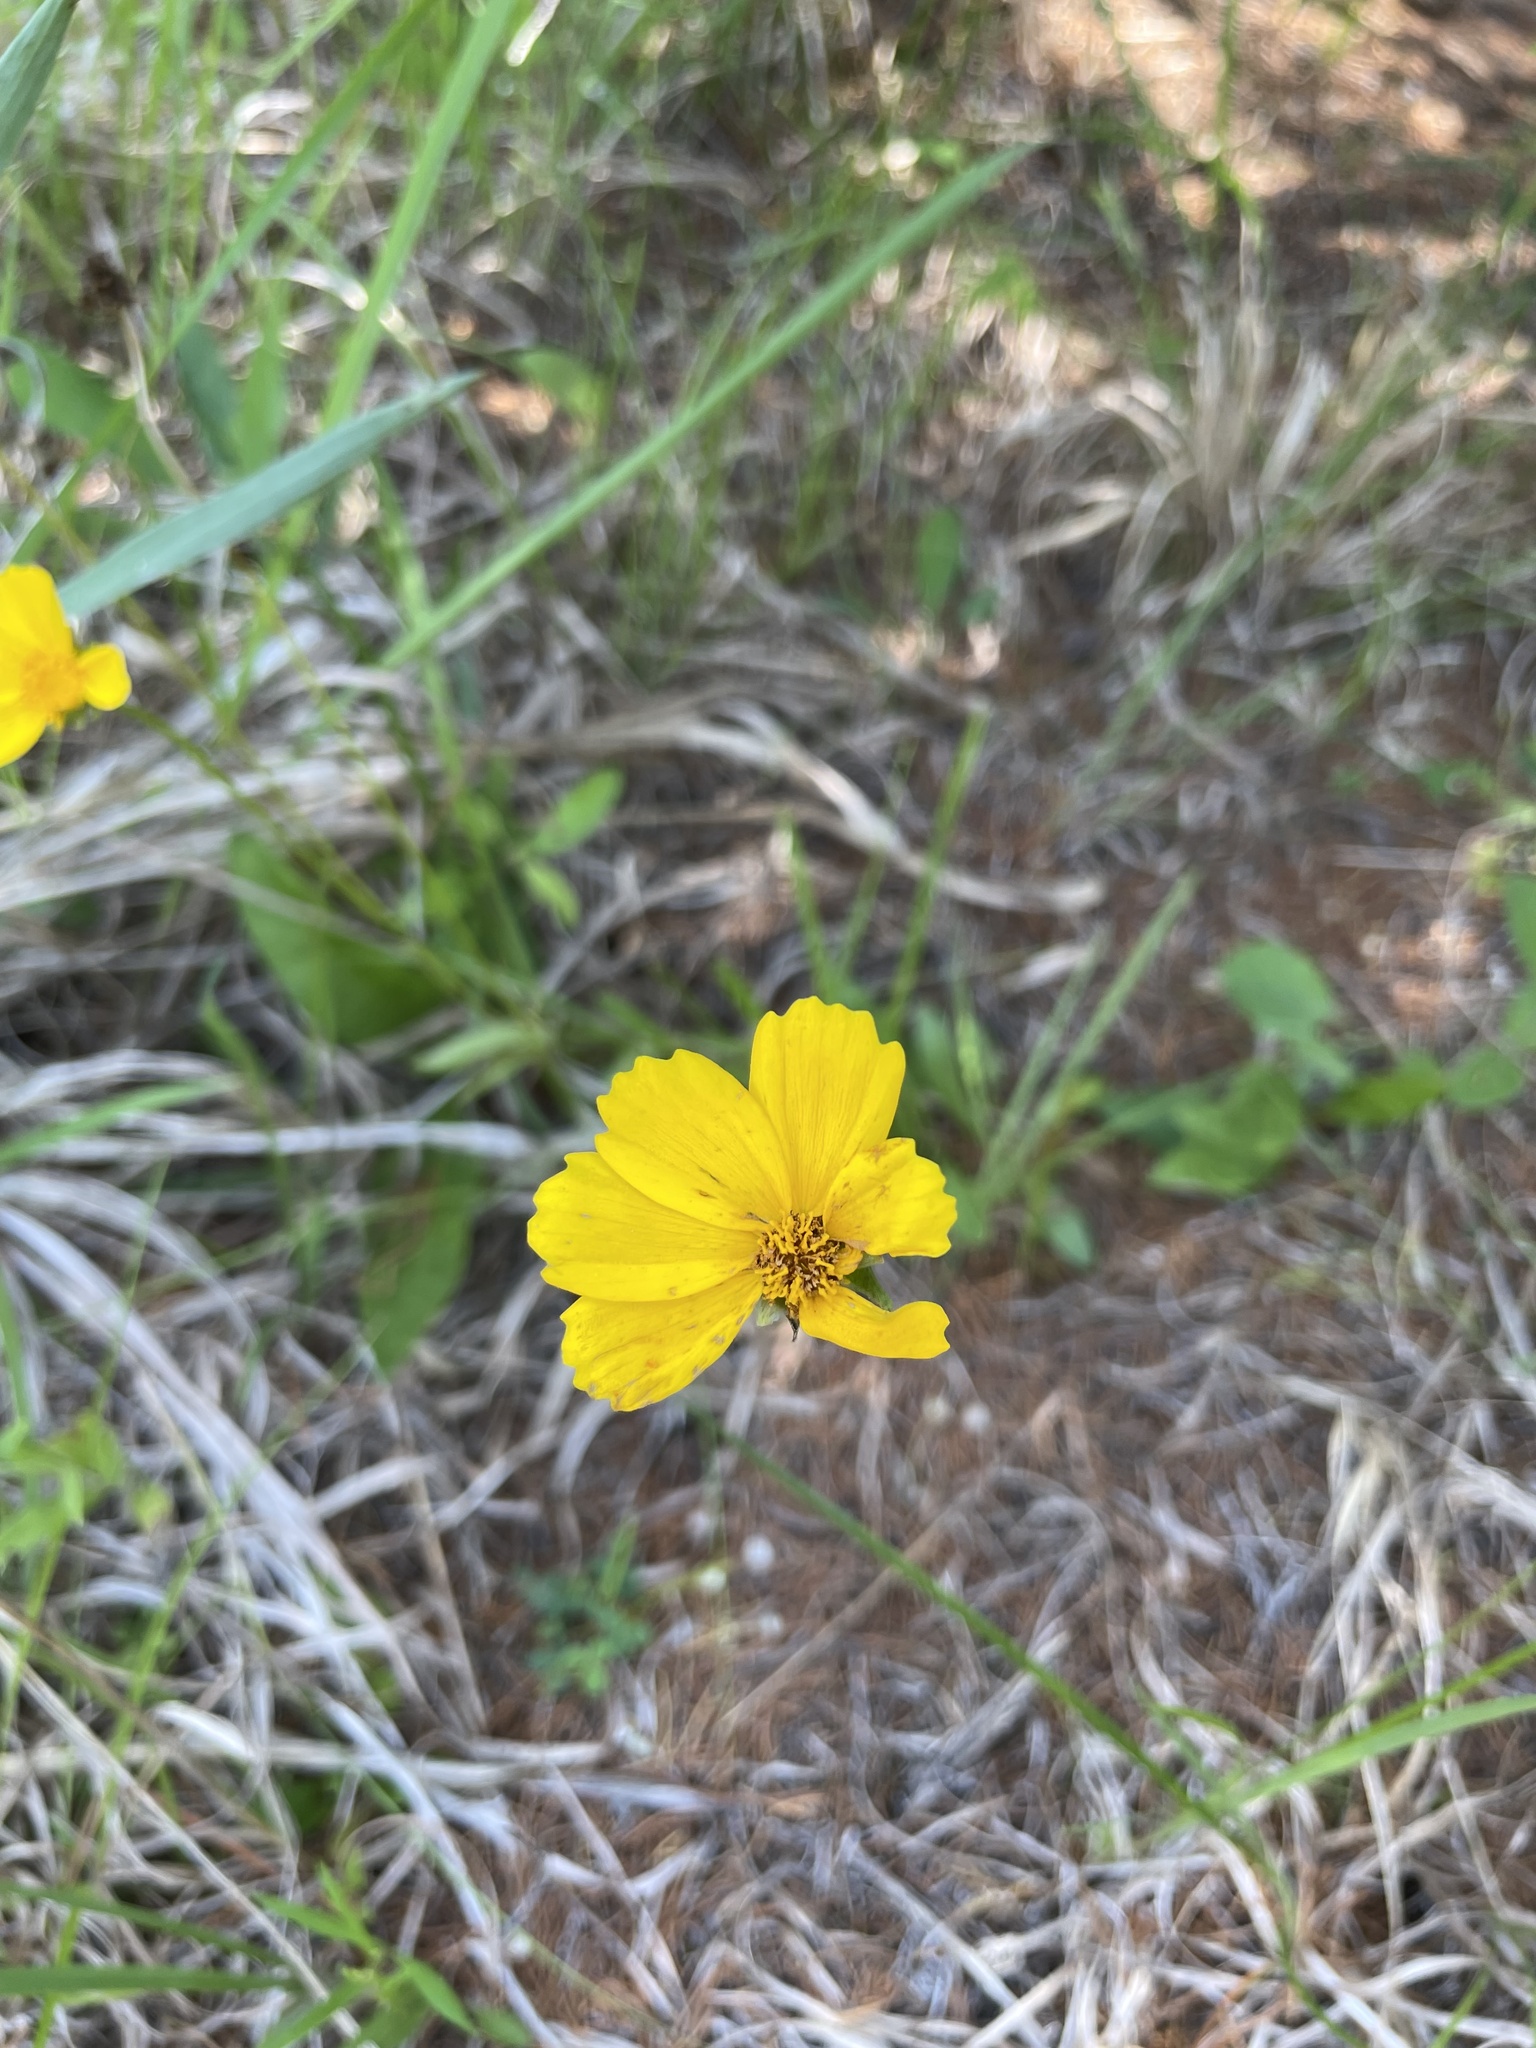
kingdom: Plantae
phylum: Tracheophyta
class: Magnoliopsida
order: Asterales
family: Asteraceae
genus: Coreopsis
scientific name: Coreopsis lanceolata
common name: Garden coreopsis
